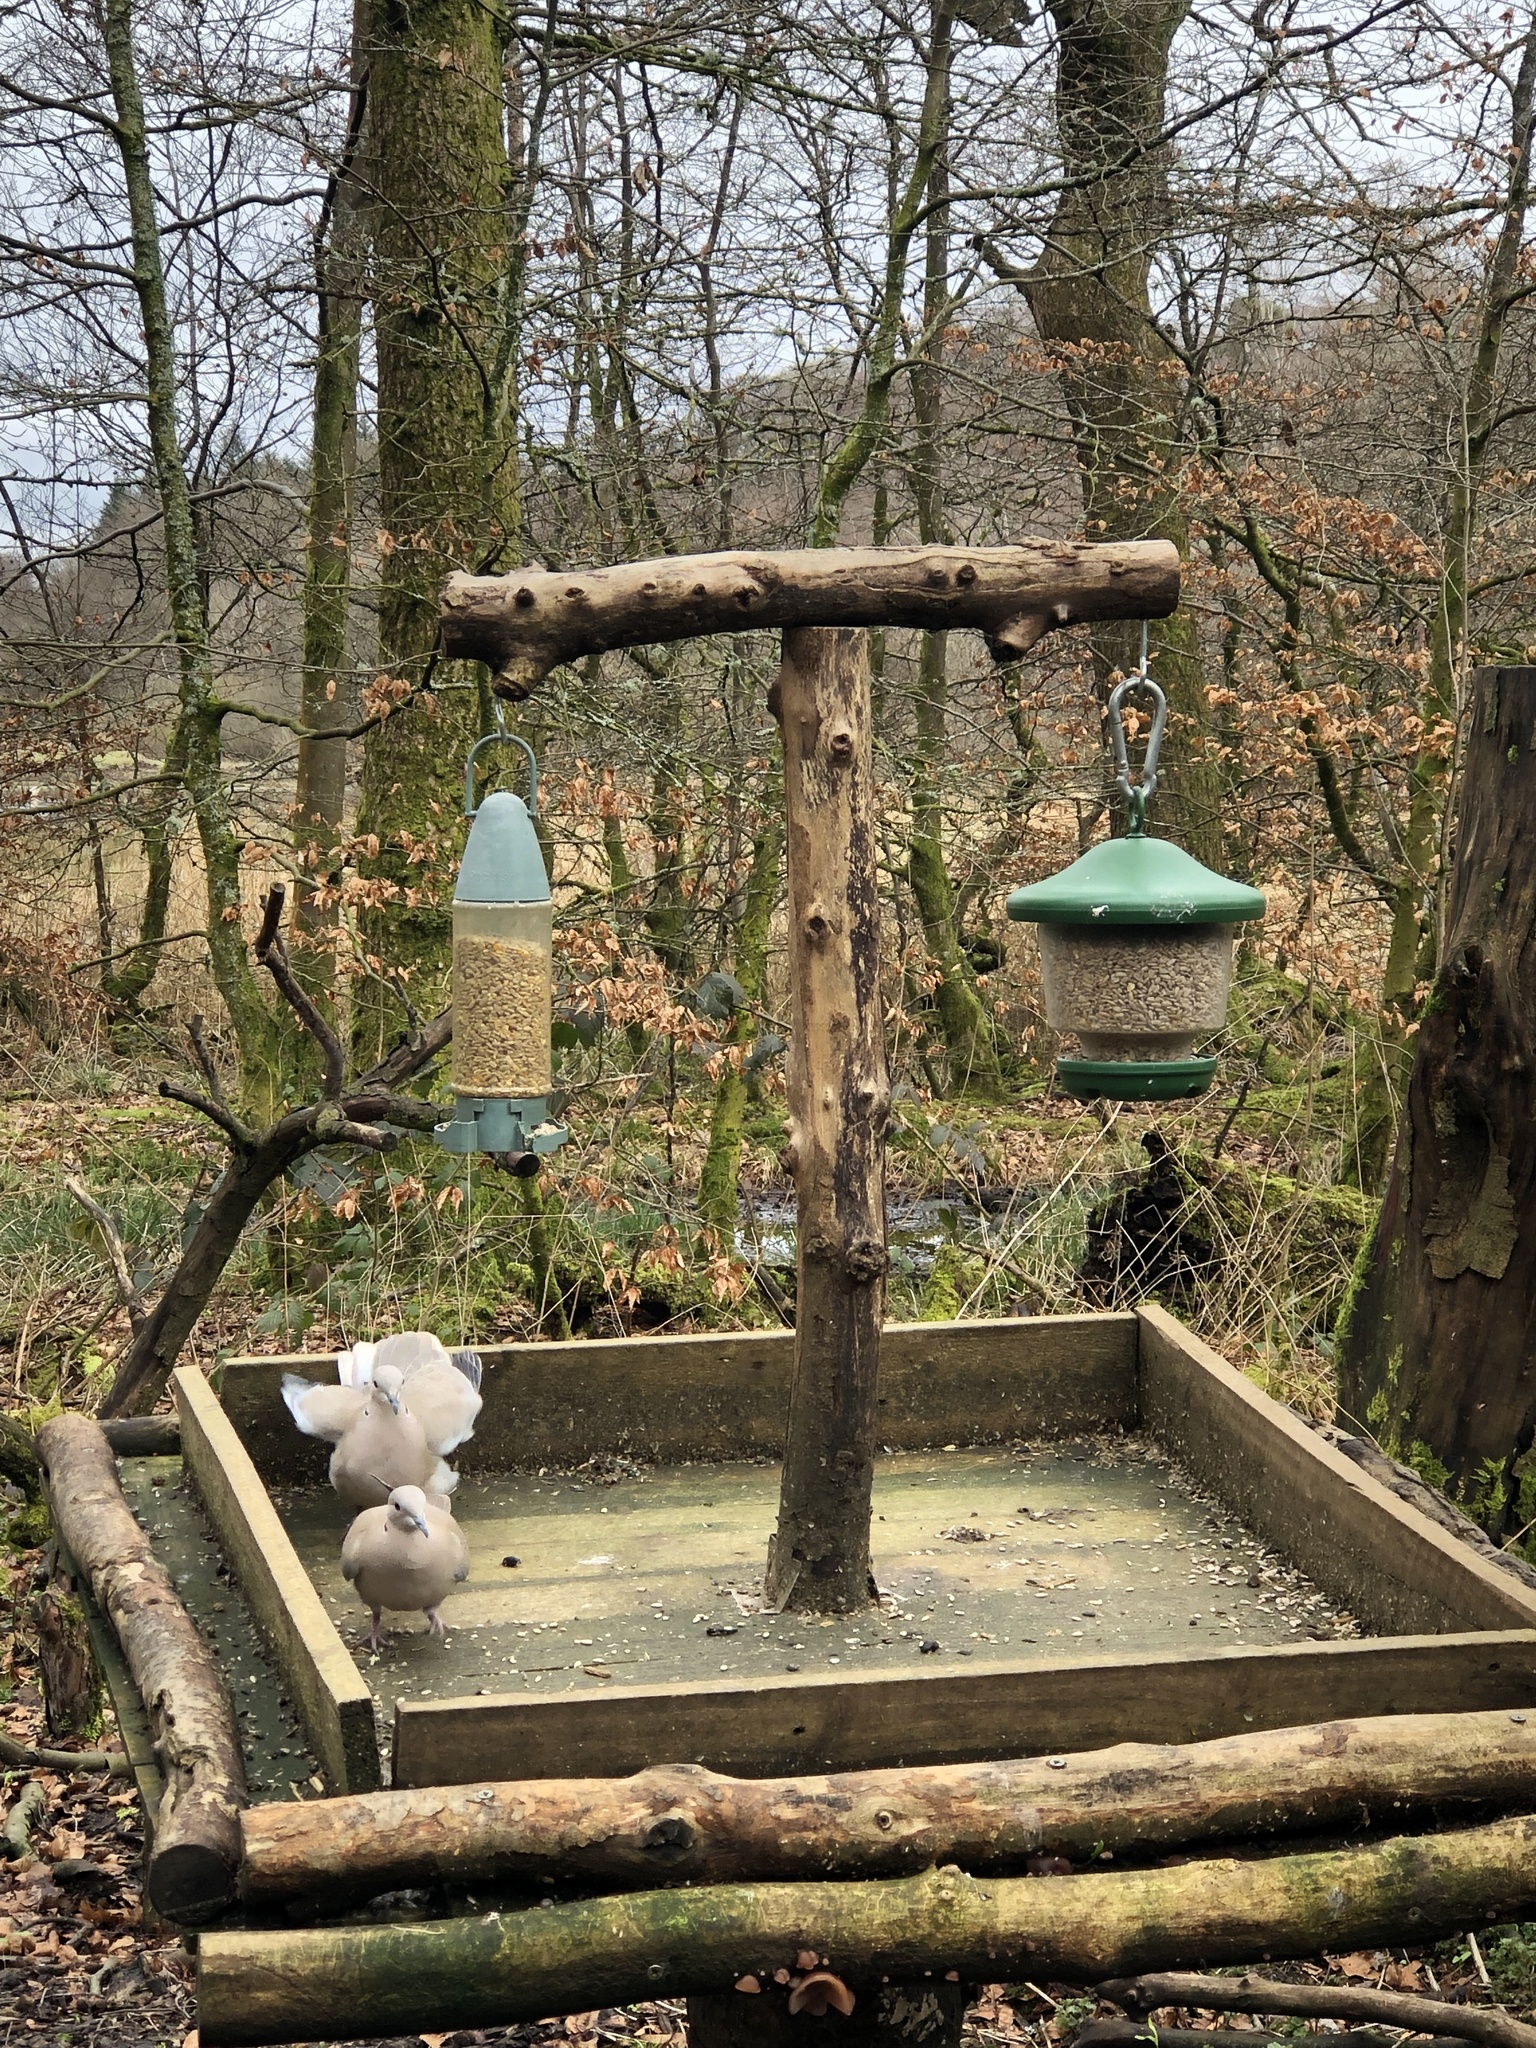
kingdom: Animalia
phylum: Chordata
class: Aves
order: Columbiformes
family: Columbidae
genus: Streptopelia
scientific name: Streptopelia decaocto
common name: Eurasian collared dove
